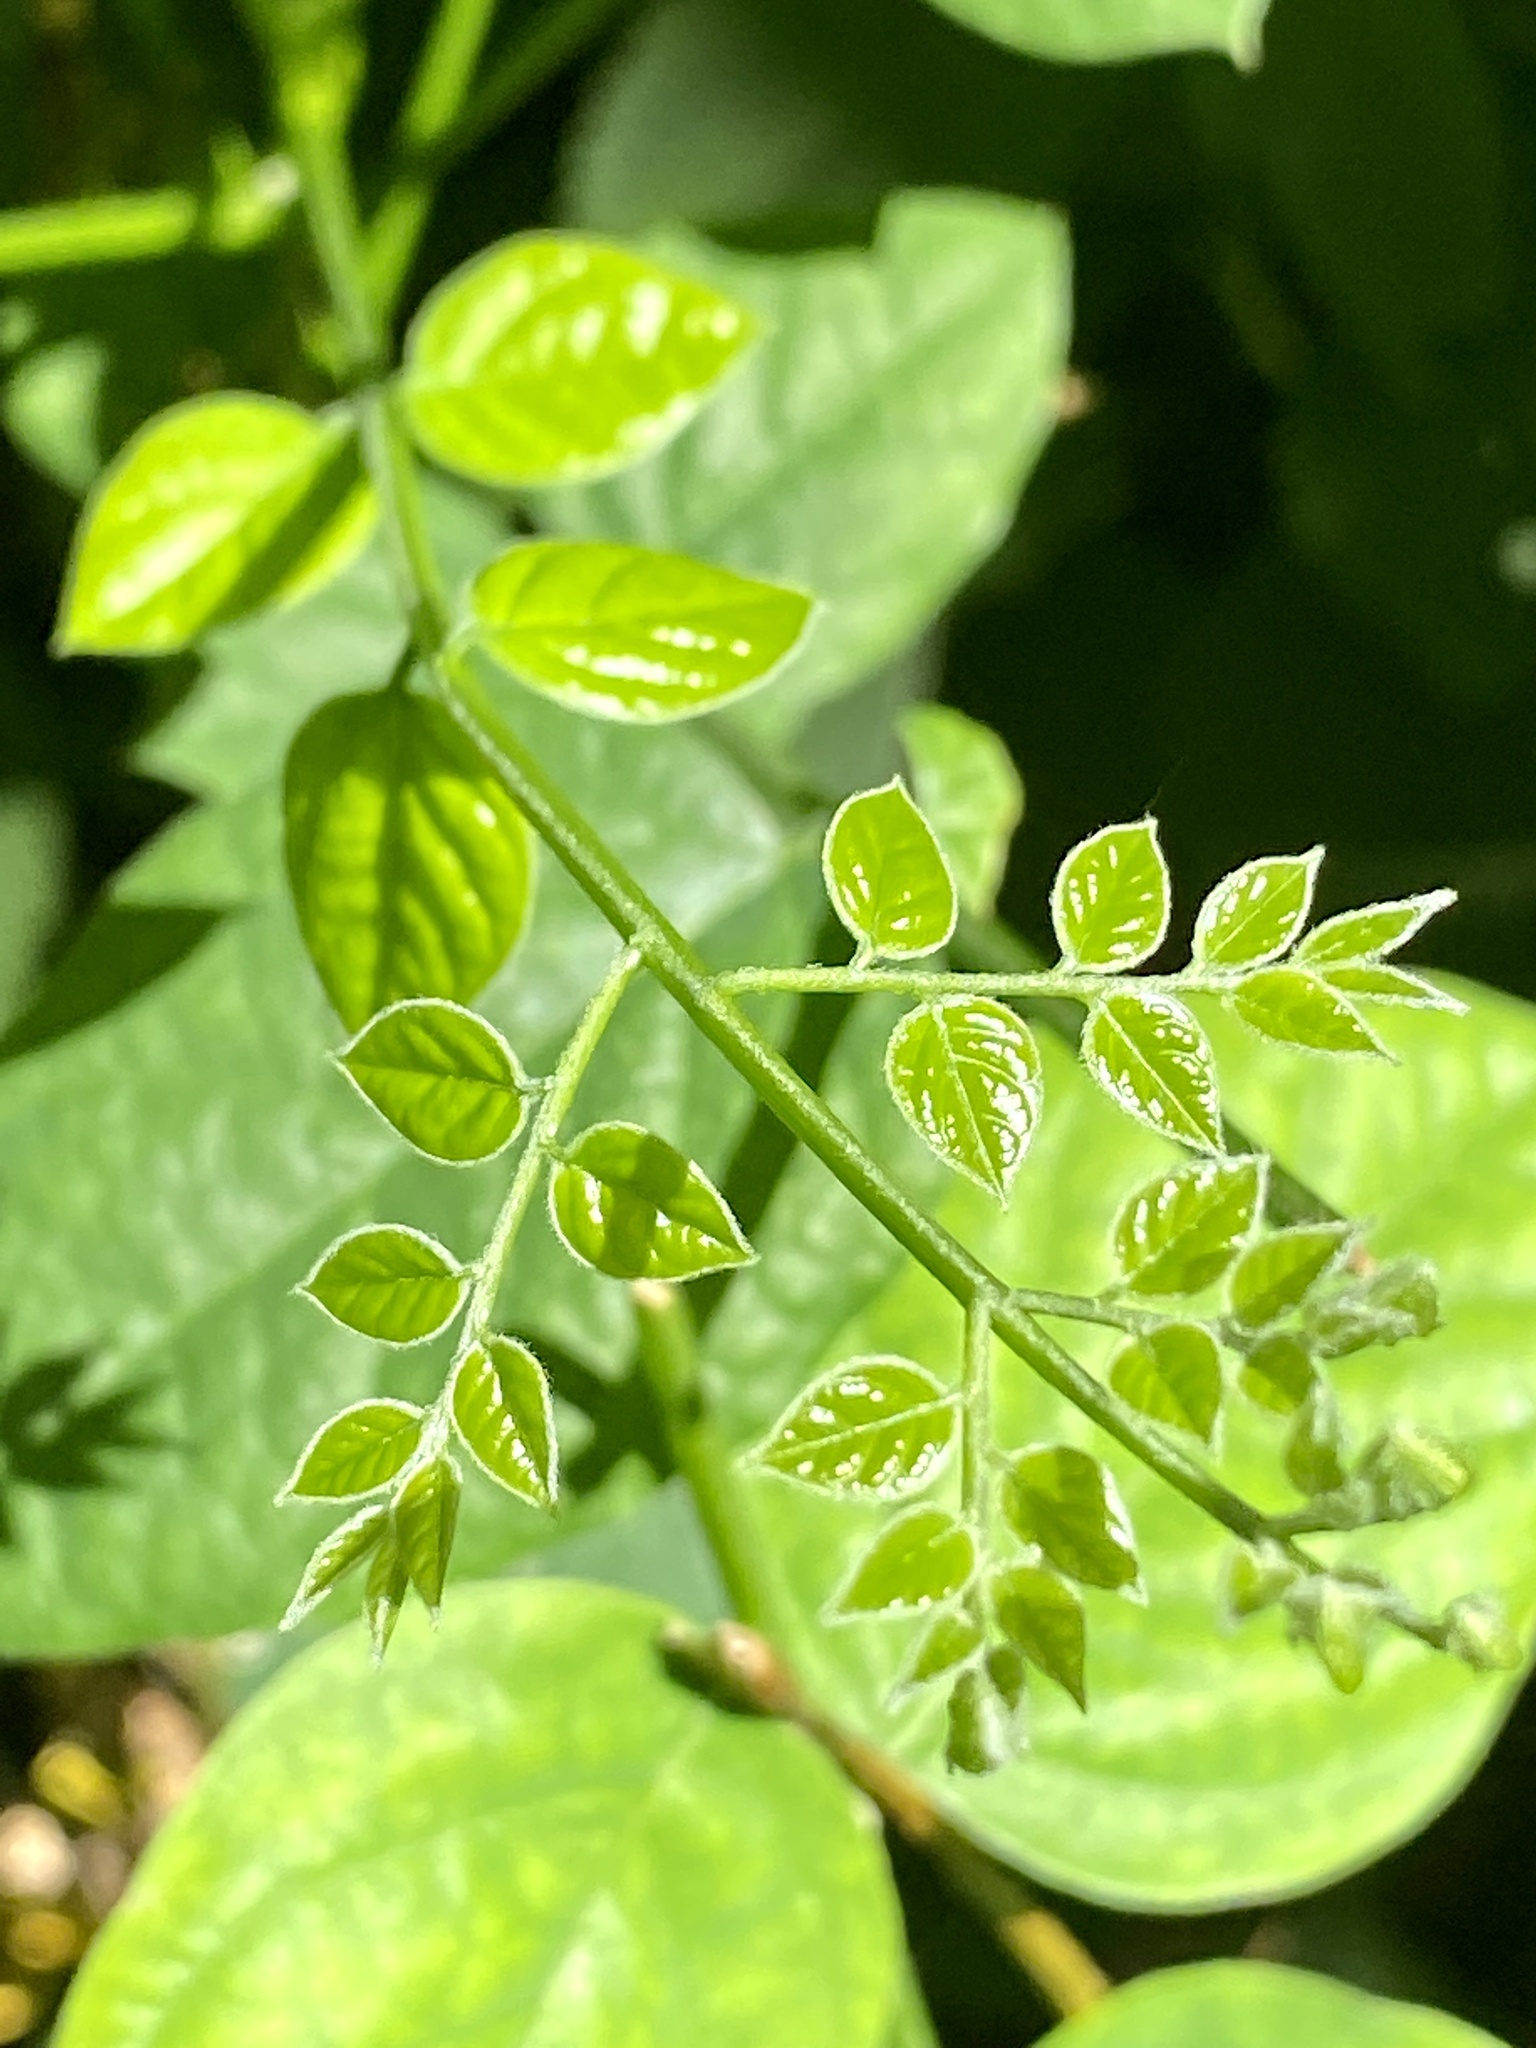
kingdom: Plantae
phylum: Tracheophyta
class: Magnoliopsida
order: Fabales
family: Fabaceae
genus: Gymnocladus
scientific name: Gymnocladus dioicus
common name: Kentucky coffee-tree
